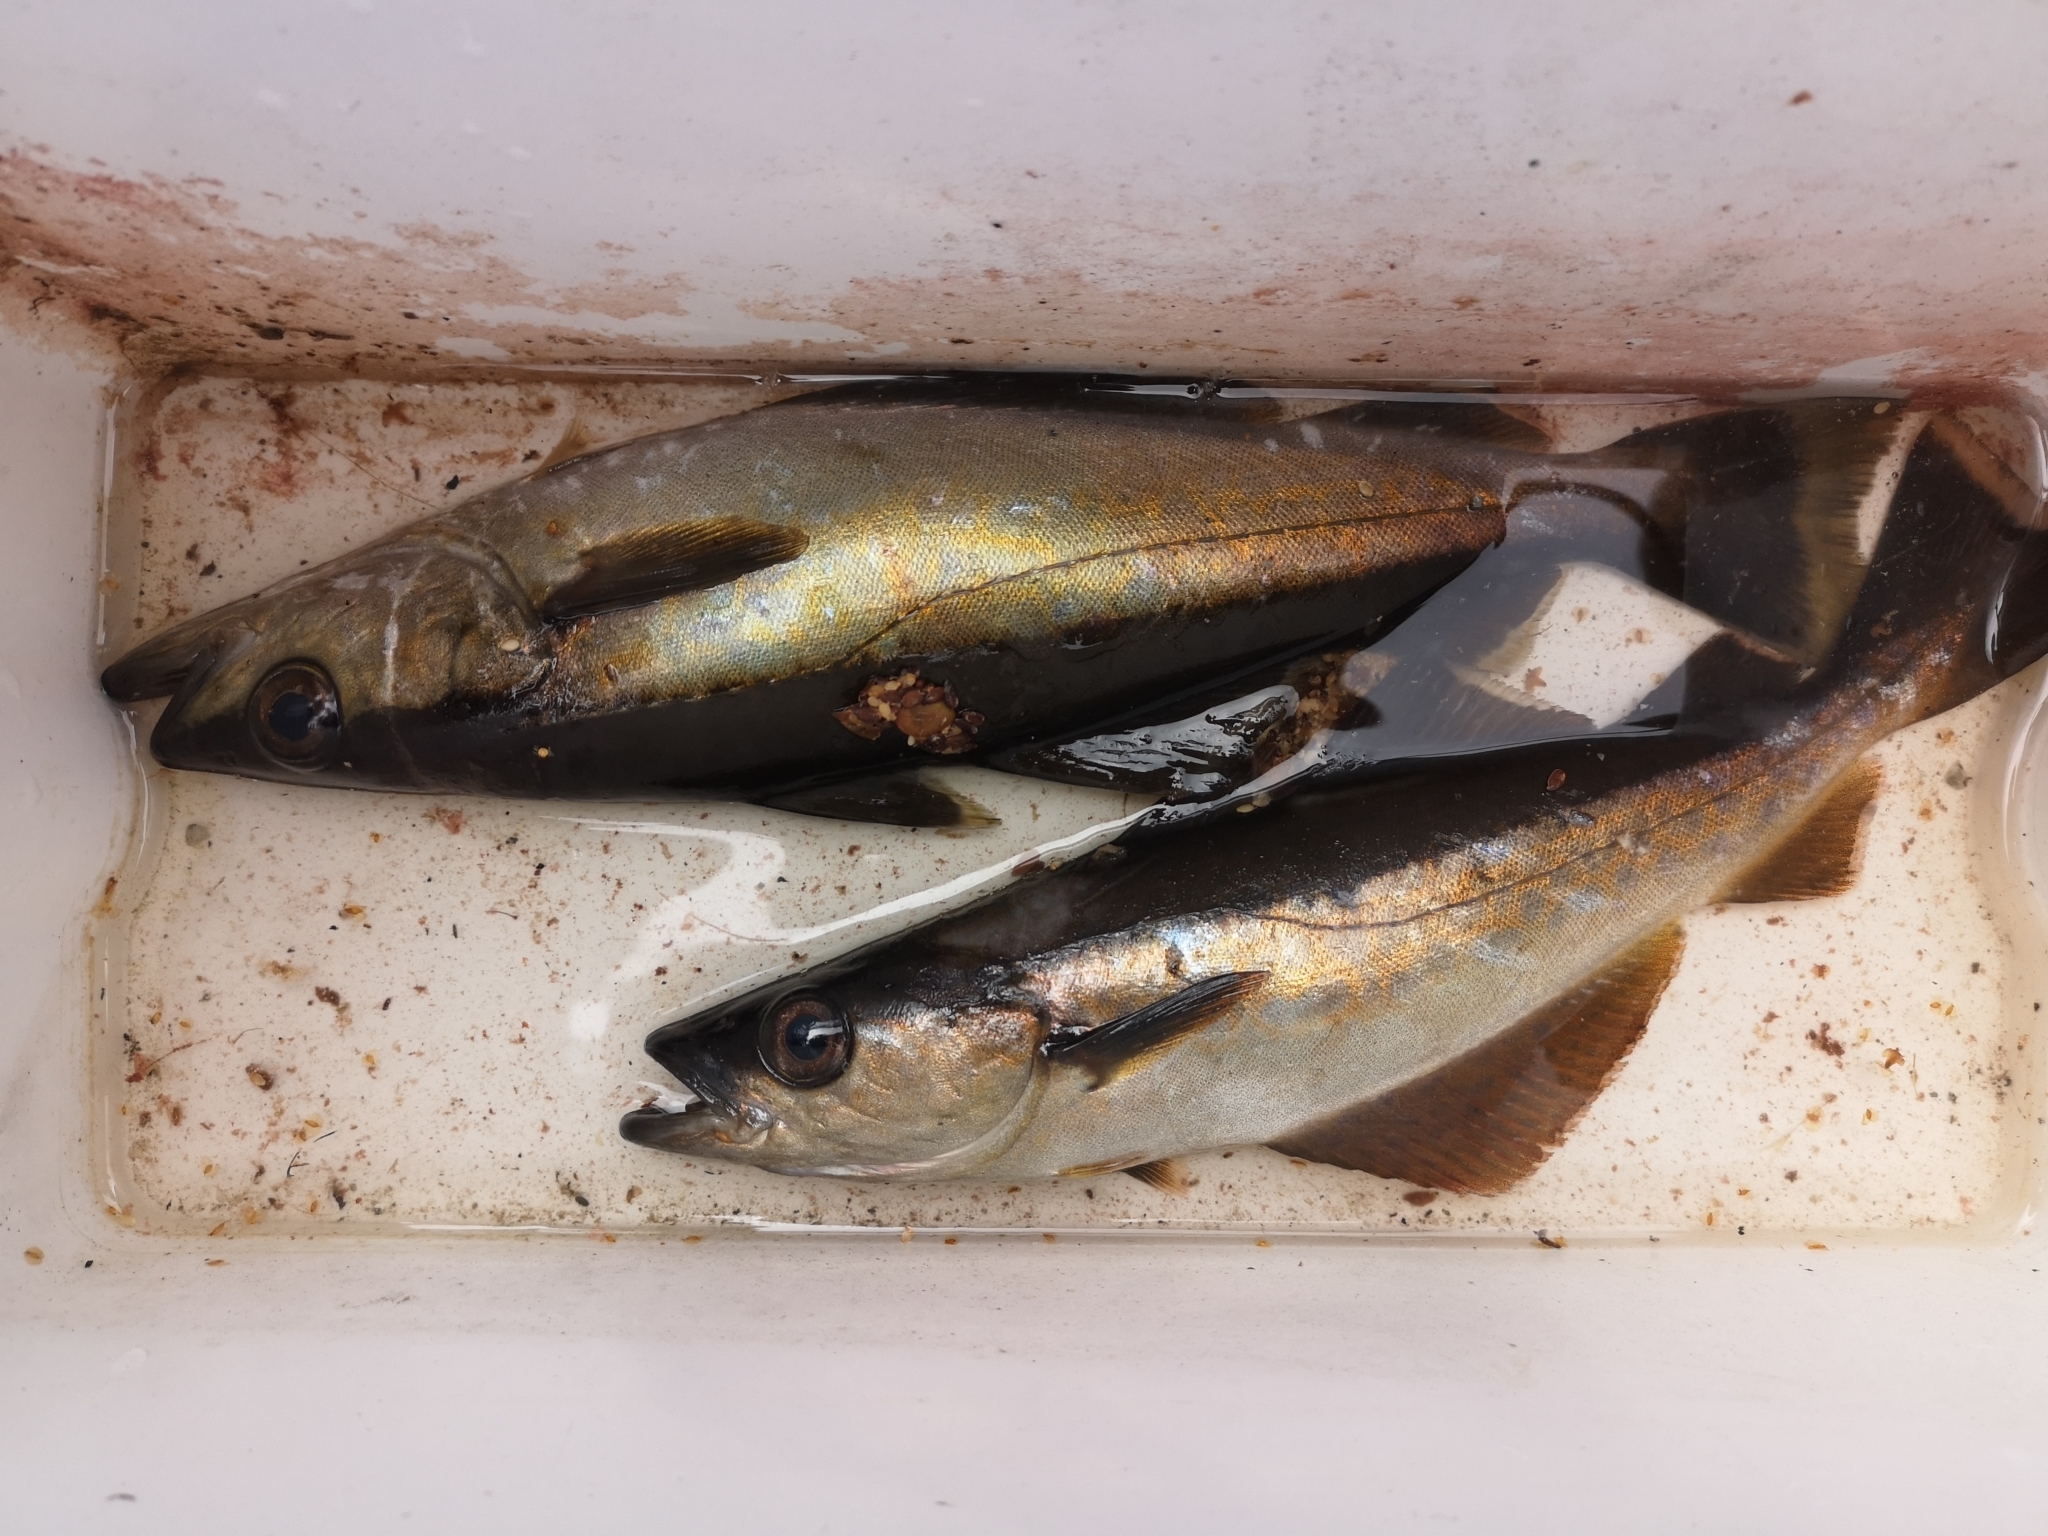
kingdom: Animalia
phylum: Chordata
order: Gadiformes
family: Gadidae
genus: Pollachius
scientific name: Pollachius pollachius
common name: Pollack
